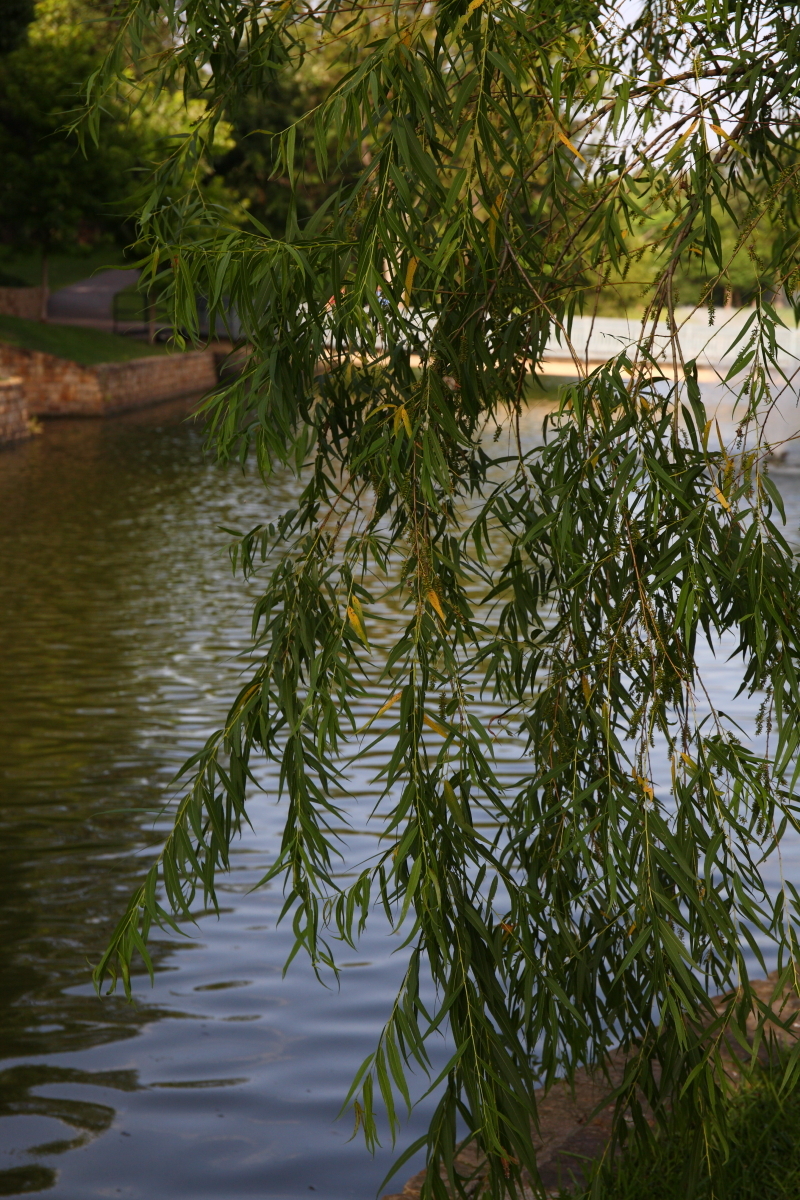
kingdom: Plantae
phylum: Tracheophyta
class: Magnoliopsida
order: Malpighiales
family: Salicaceae
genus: Salix
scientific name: Salix nigra
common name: Black willow
